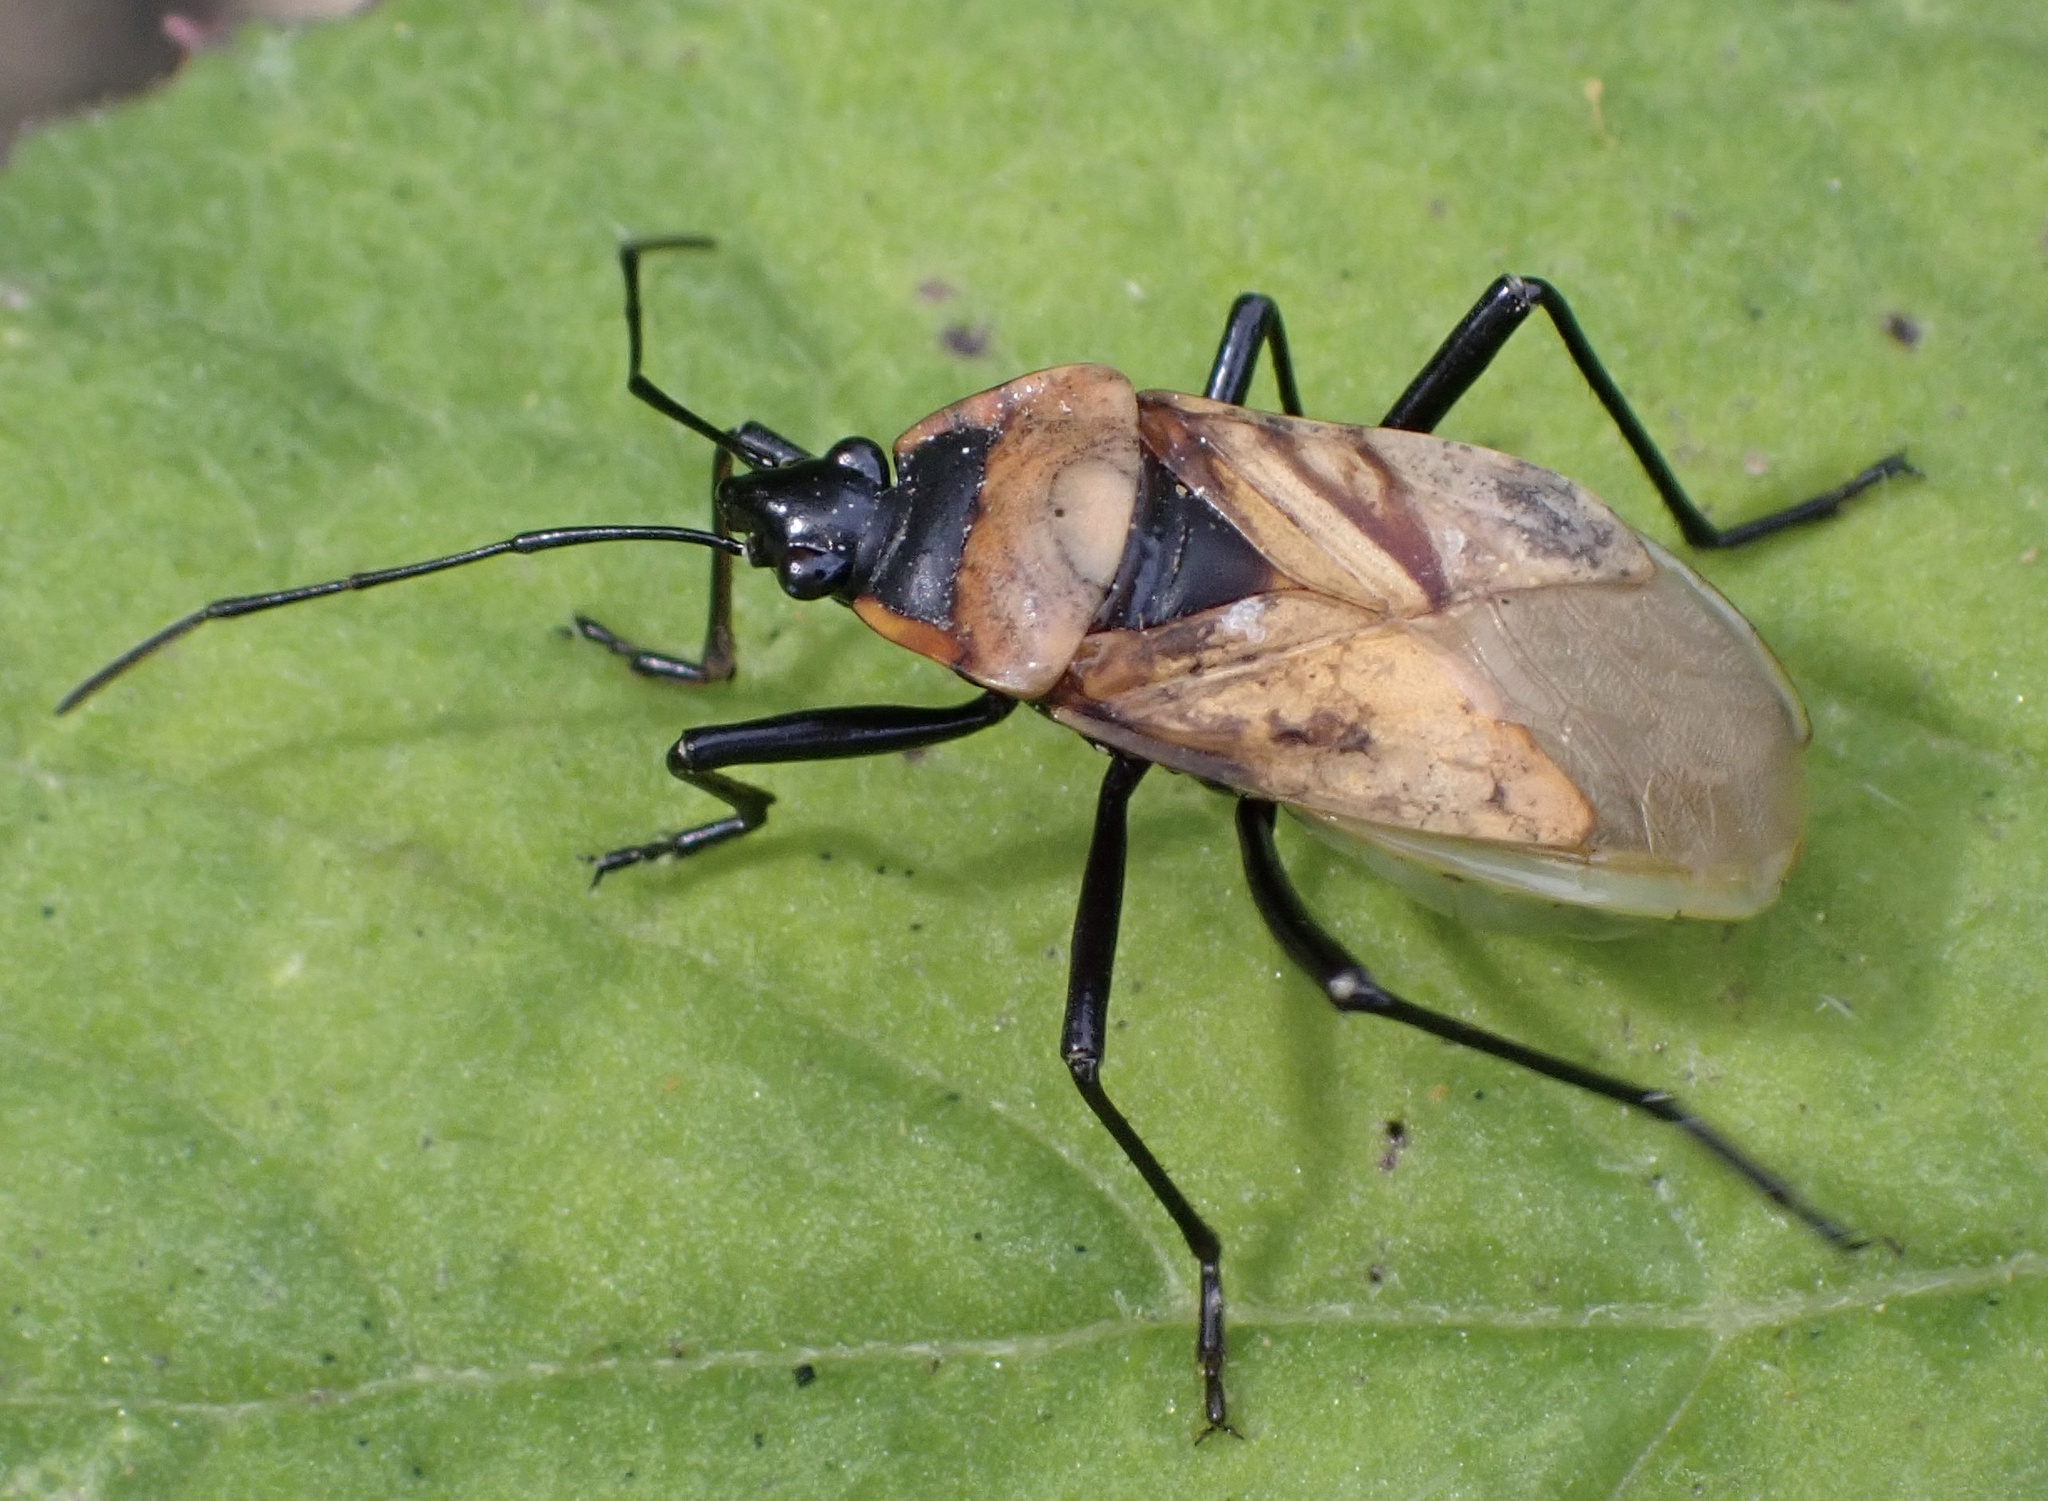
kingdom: Animalia
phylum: Arthropoda
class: Insecta
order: Hemiptera
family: Pyrrhocoridae
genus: Dindymus
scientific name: Dindymus
